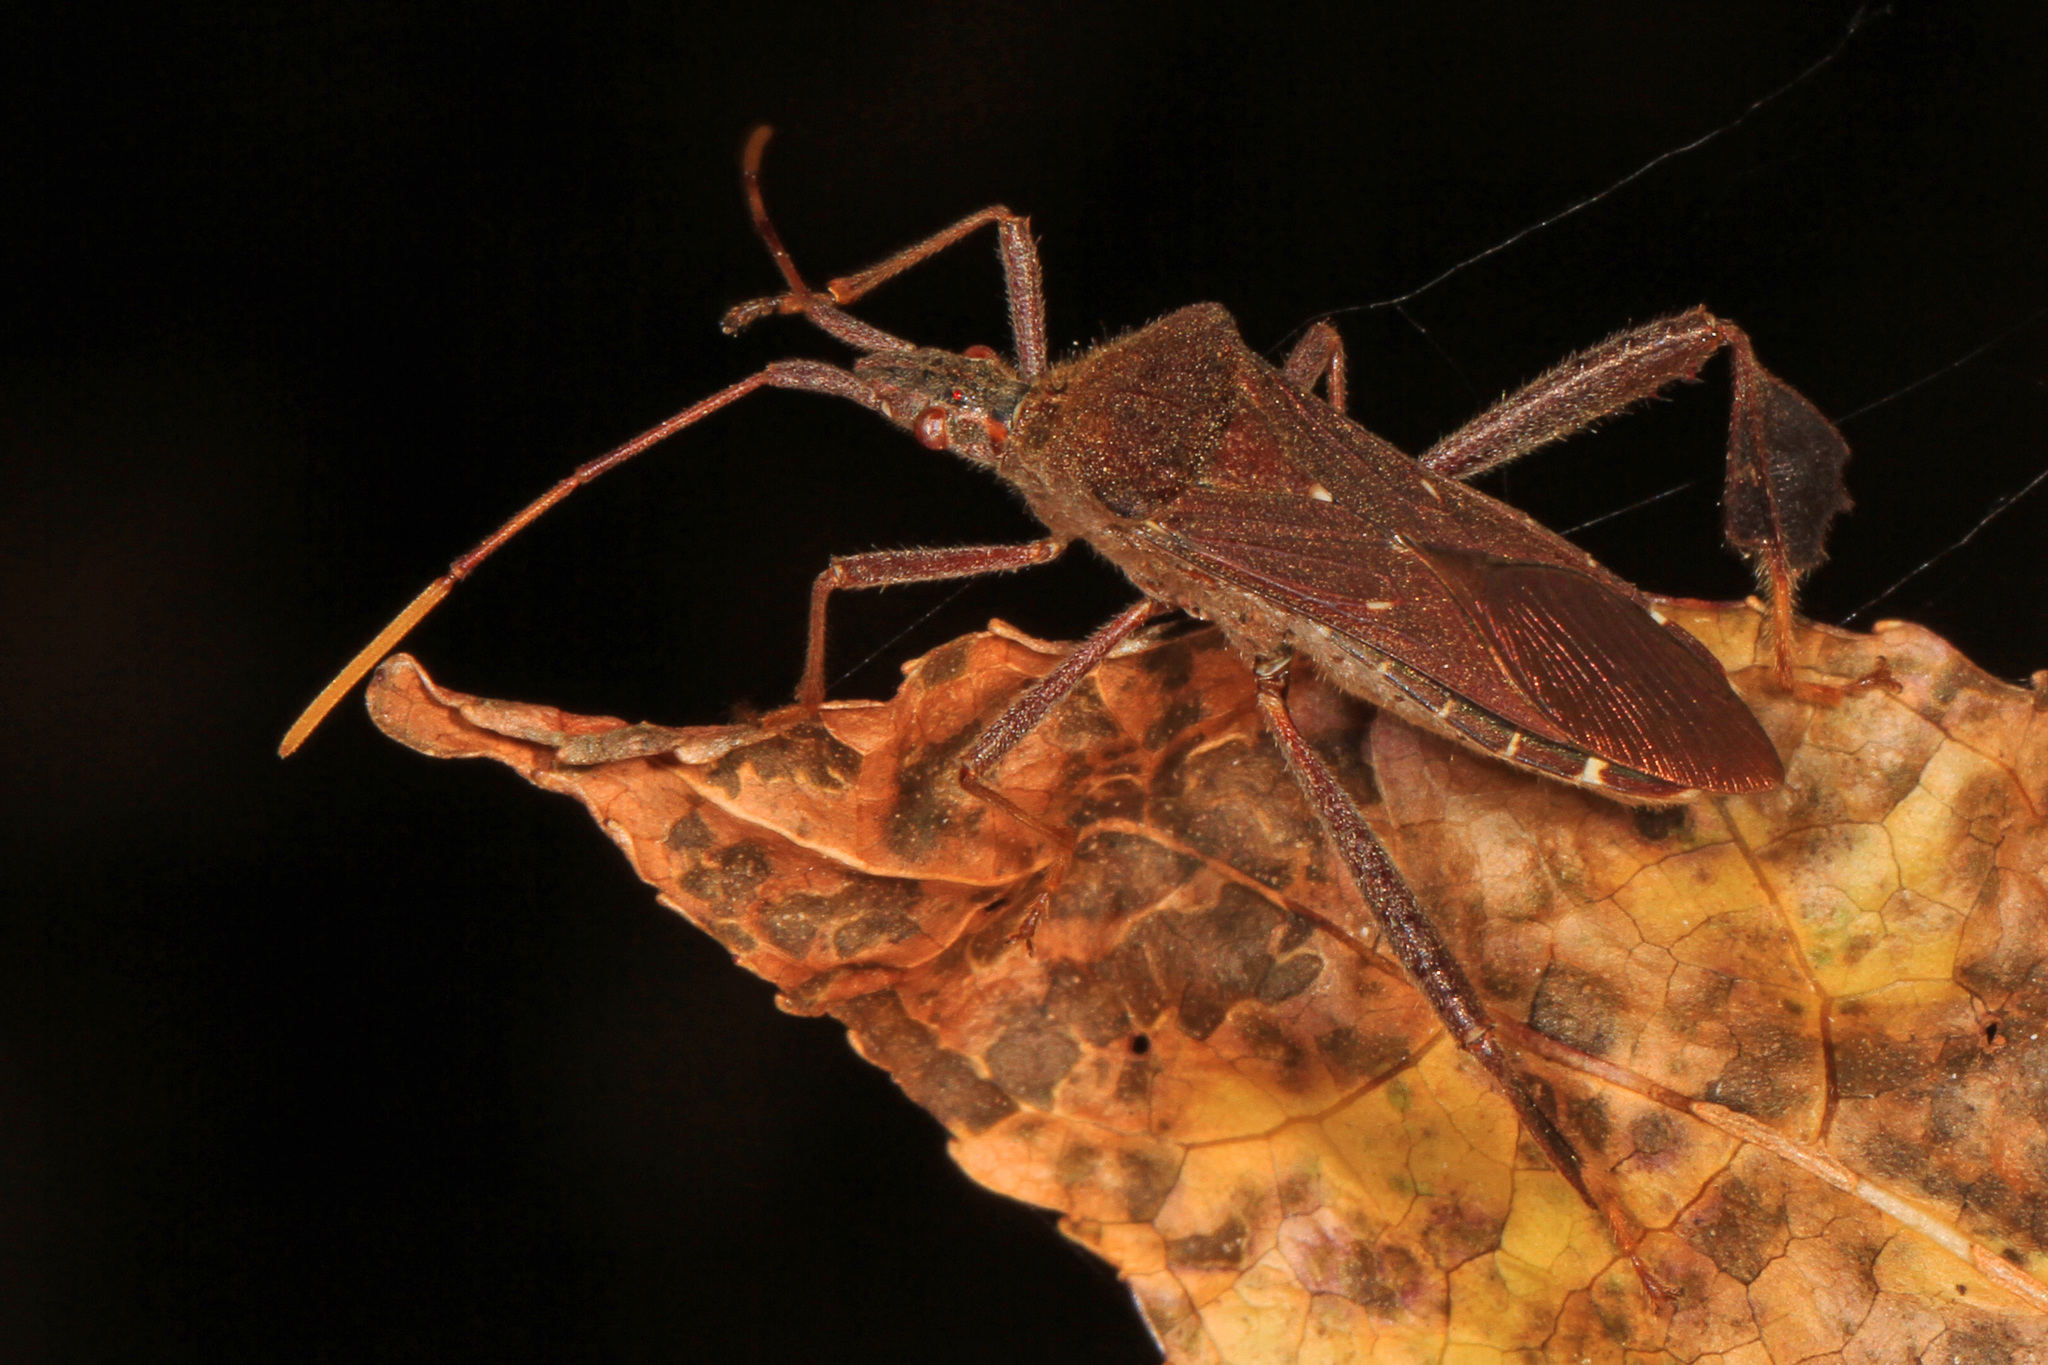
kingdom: Animalia
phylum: Arthropoda
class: Insecta
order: Hemiptera
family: Coreidae
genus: Leptoglossus
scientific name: Leptoglossus oppositus
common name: Northern leaf-footed bug
